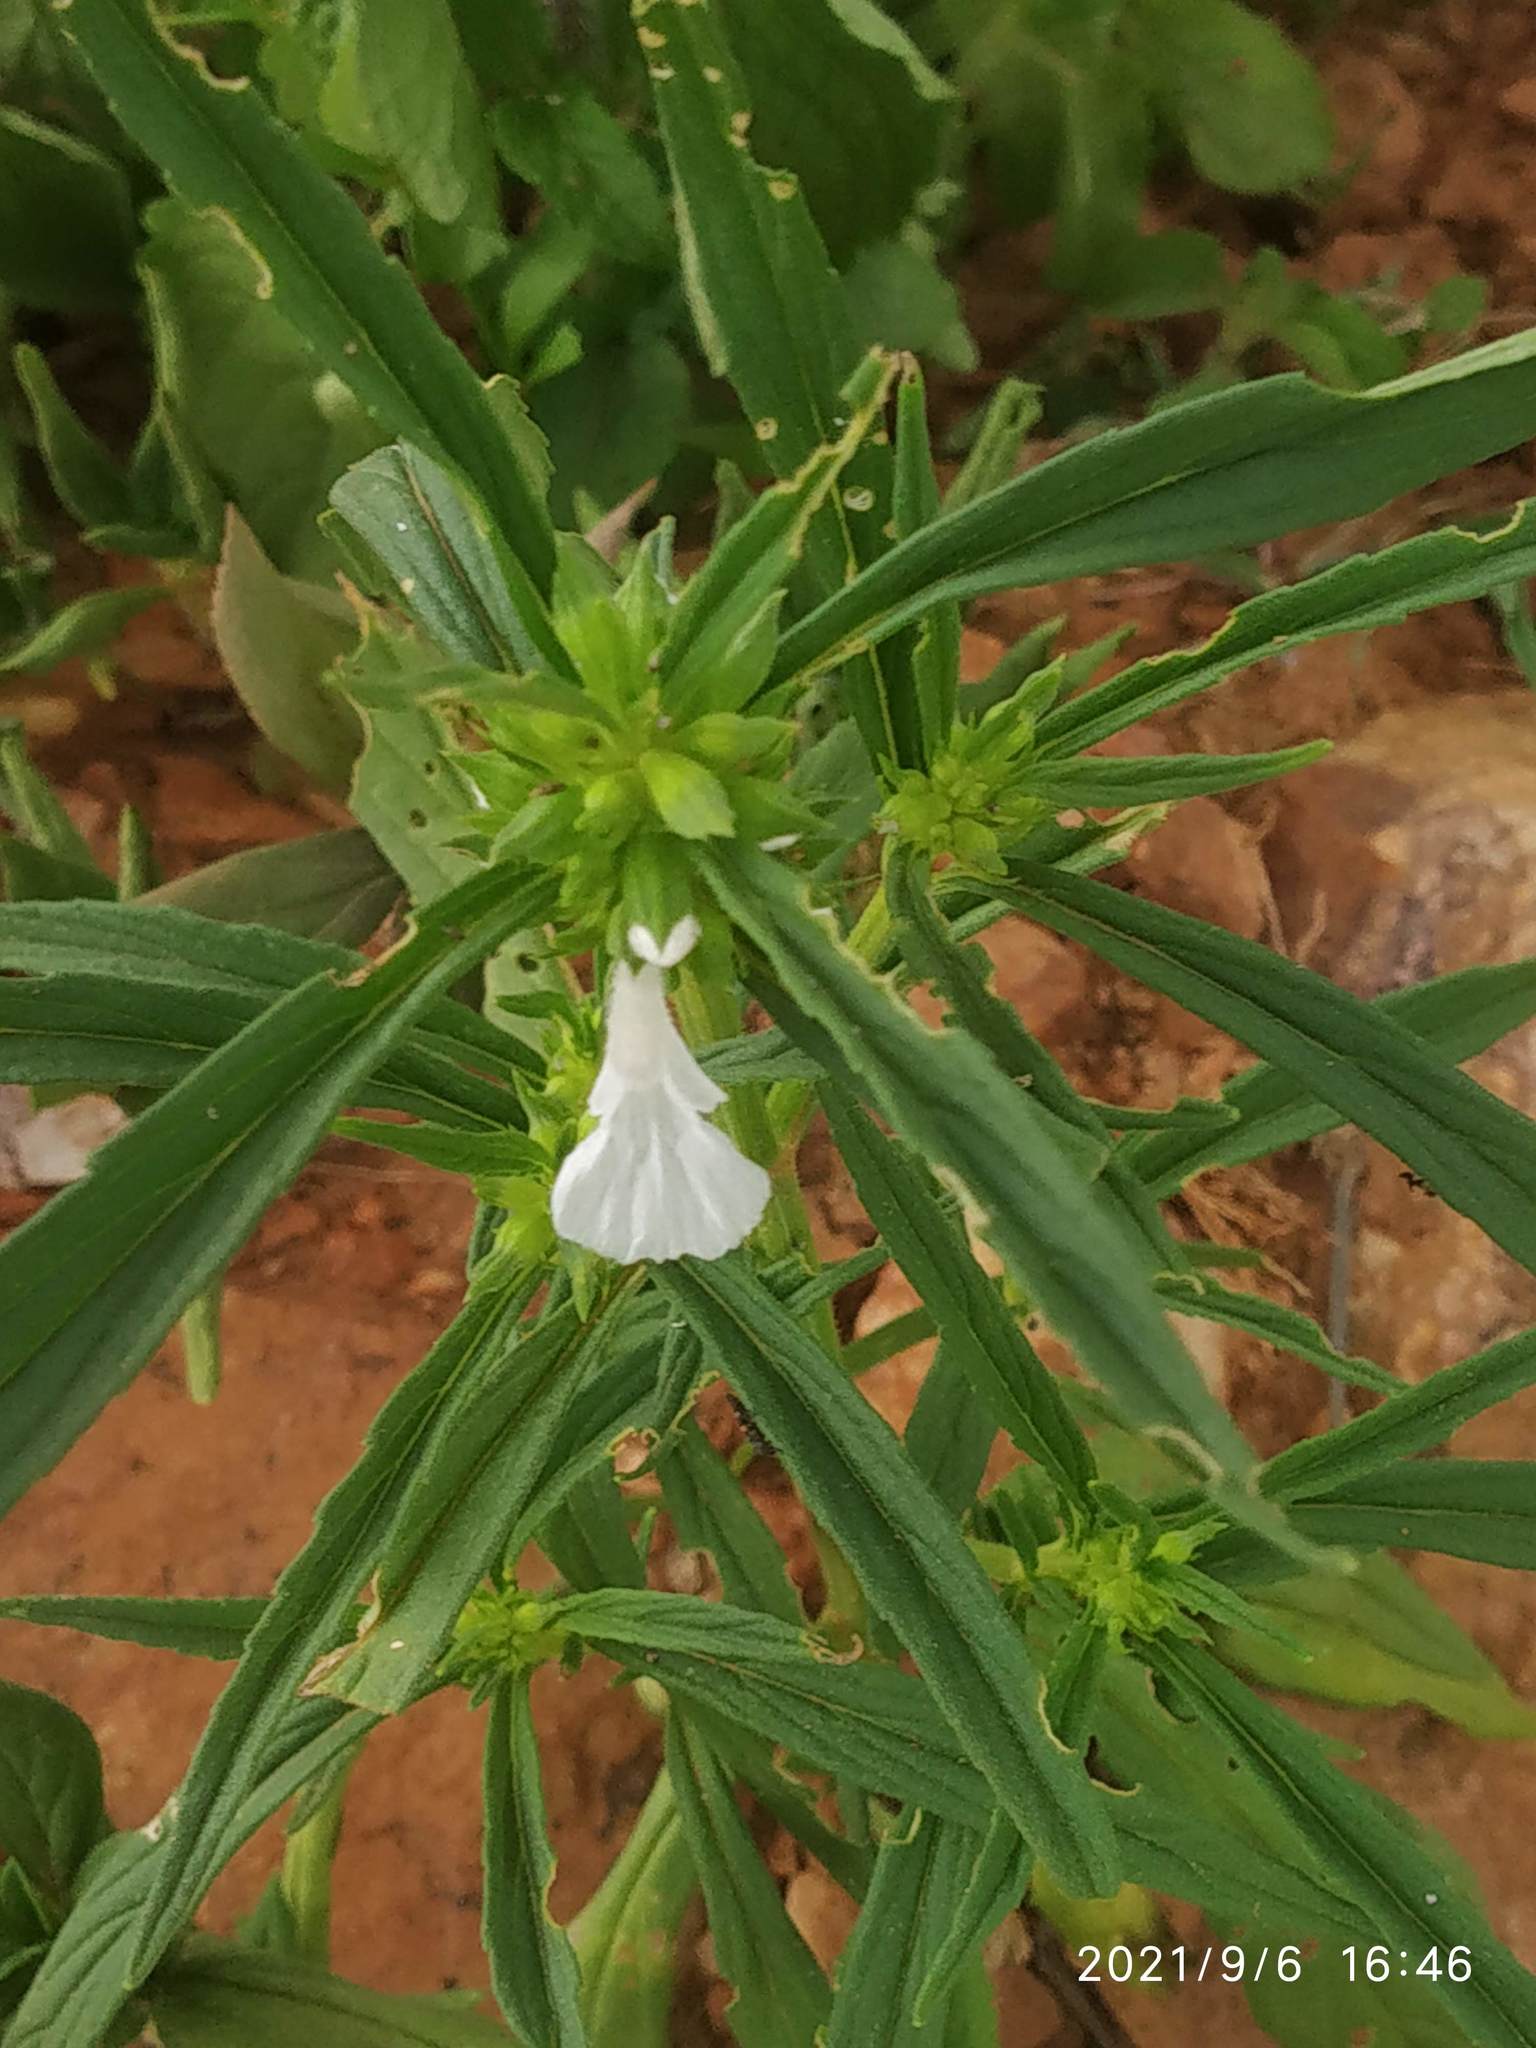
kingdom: Plantae
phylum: Tracheophyta
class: Magnoliopsida
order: Lamiales
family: Lamiaceae
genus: Leucas
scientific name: Leucas lavandulifolia
